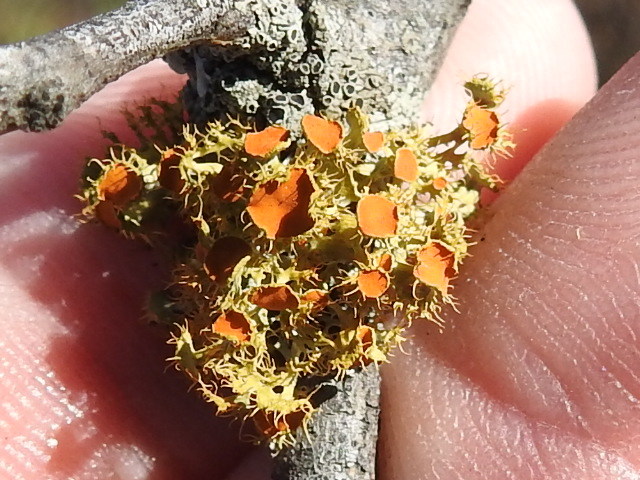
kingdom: Fungi
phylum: Ascomycota
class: Lecanoromycetes
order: Teloschistales
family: Teloschistaceae
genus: Niorma
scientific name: Niorma chrysophthalma
